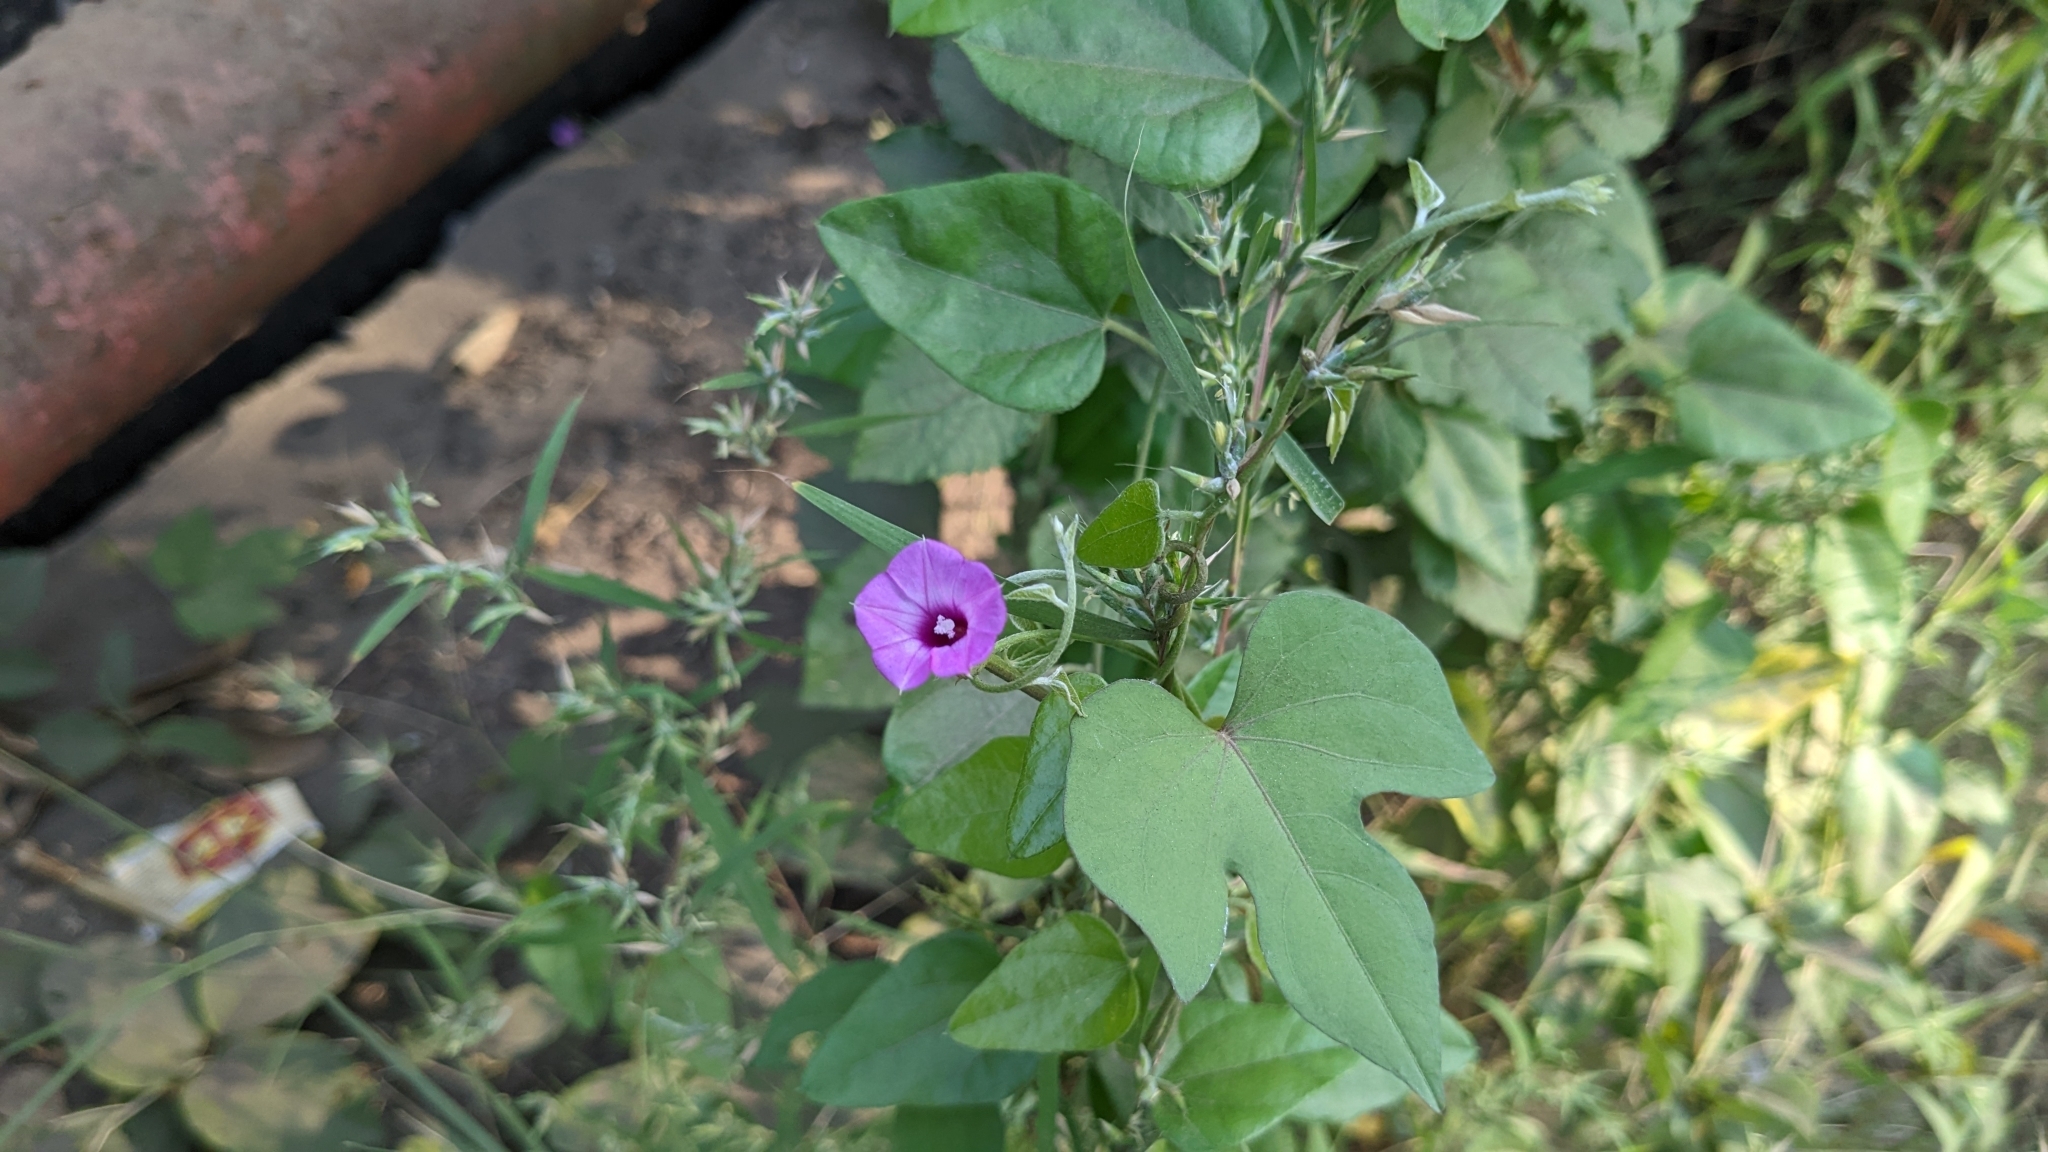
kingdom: Plantae
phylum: Tracheophyta
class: Magnoliopsida
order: Solanales
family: Convolvulaceae
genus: Ipomoea
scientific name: Ipomoea triloba
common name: Little-bell
